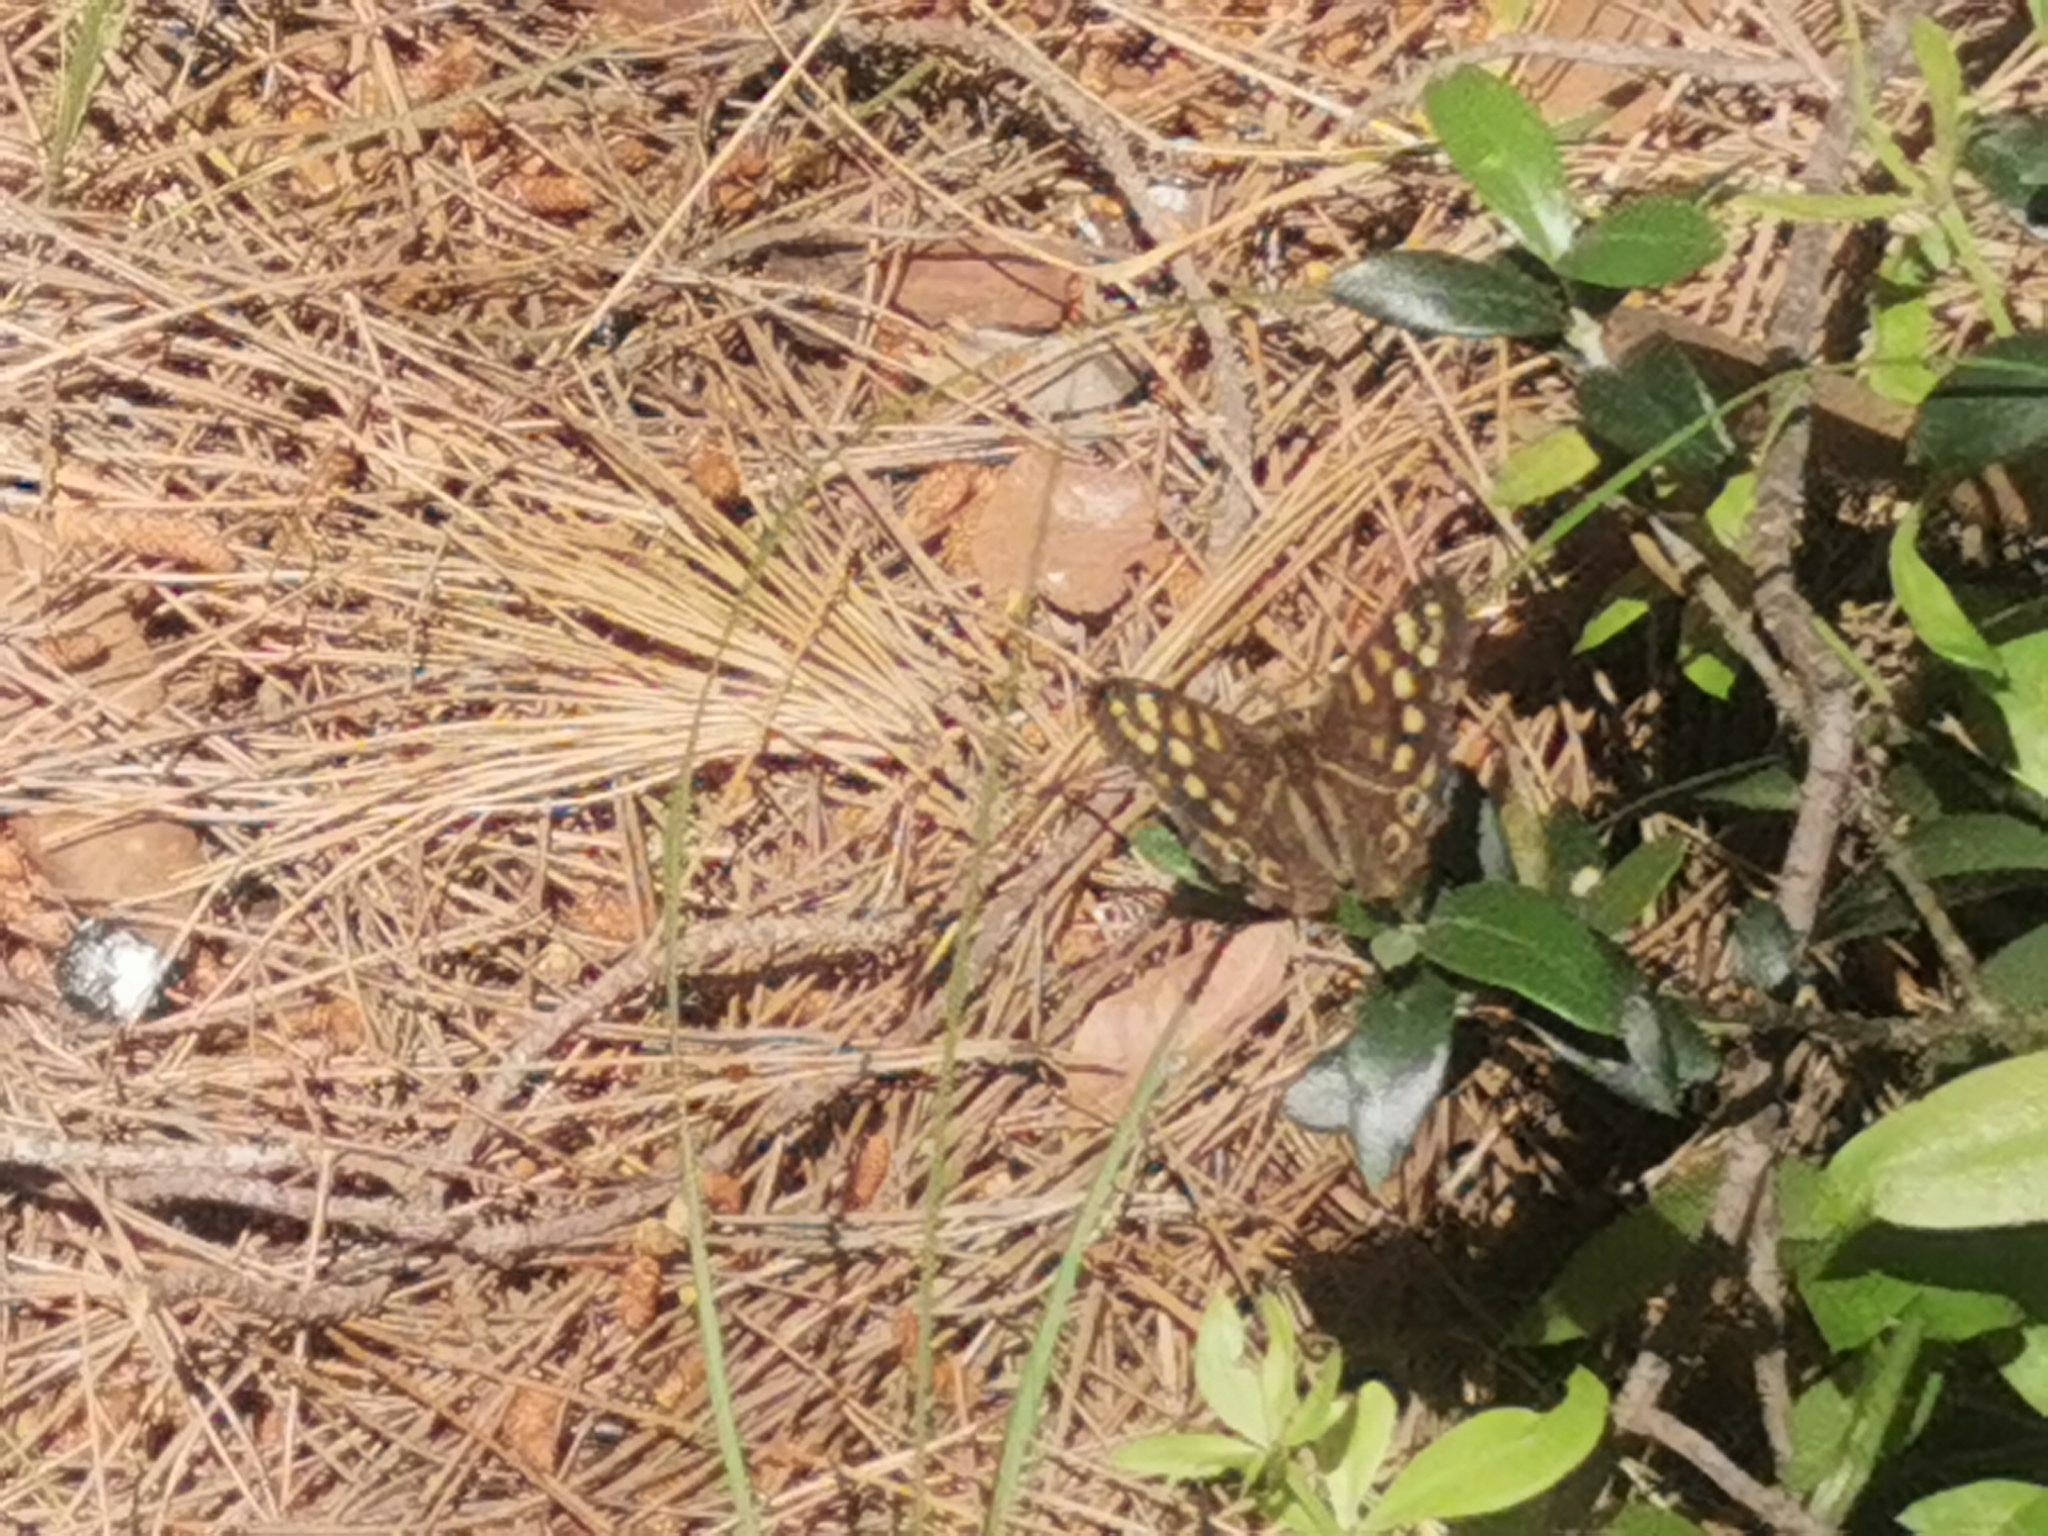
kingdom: Animalia
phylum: Arthropoda
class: Insecta
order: Lepidoptera
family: Nymphalidae
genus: Pararge
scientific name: Pararge aegeria
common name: Speckled wood
